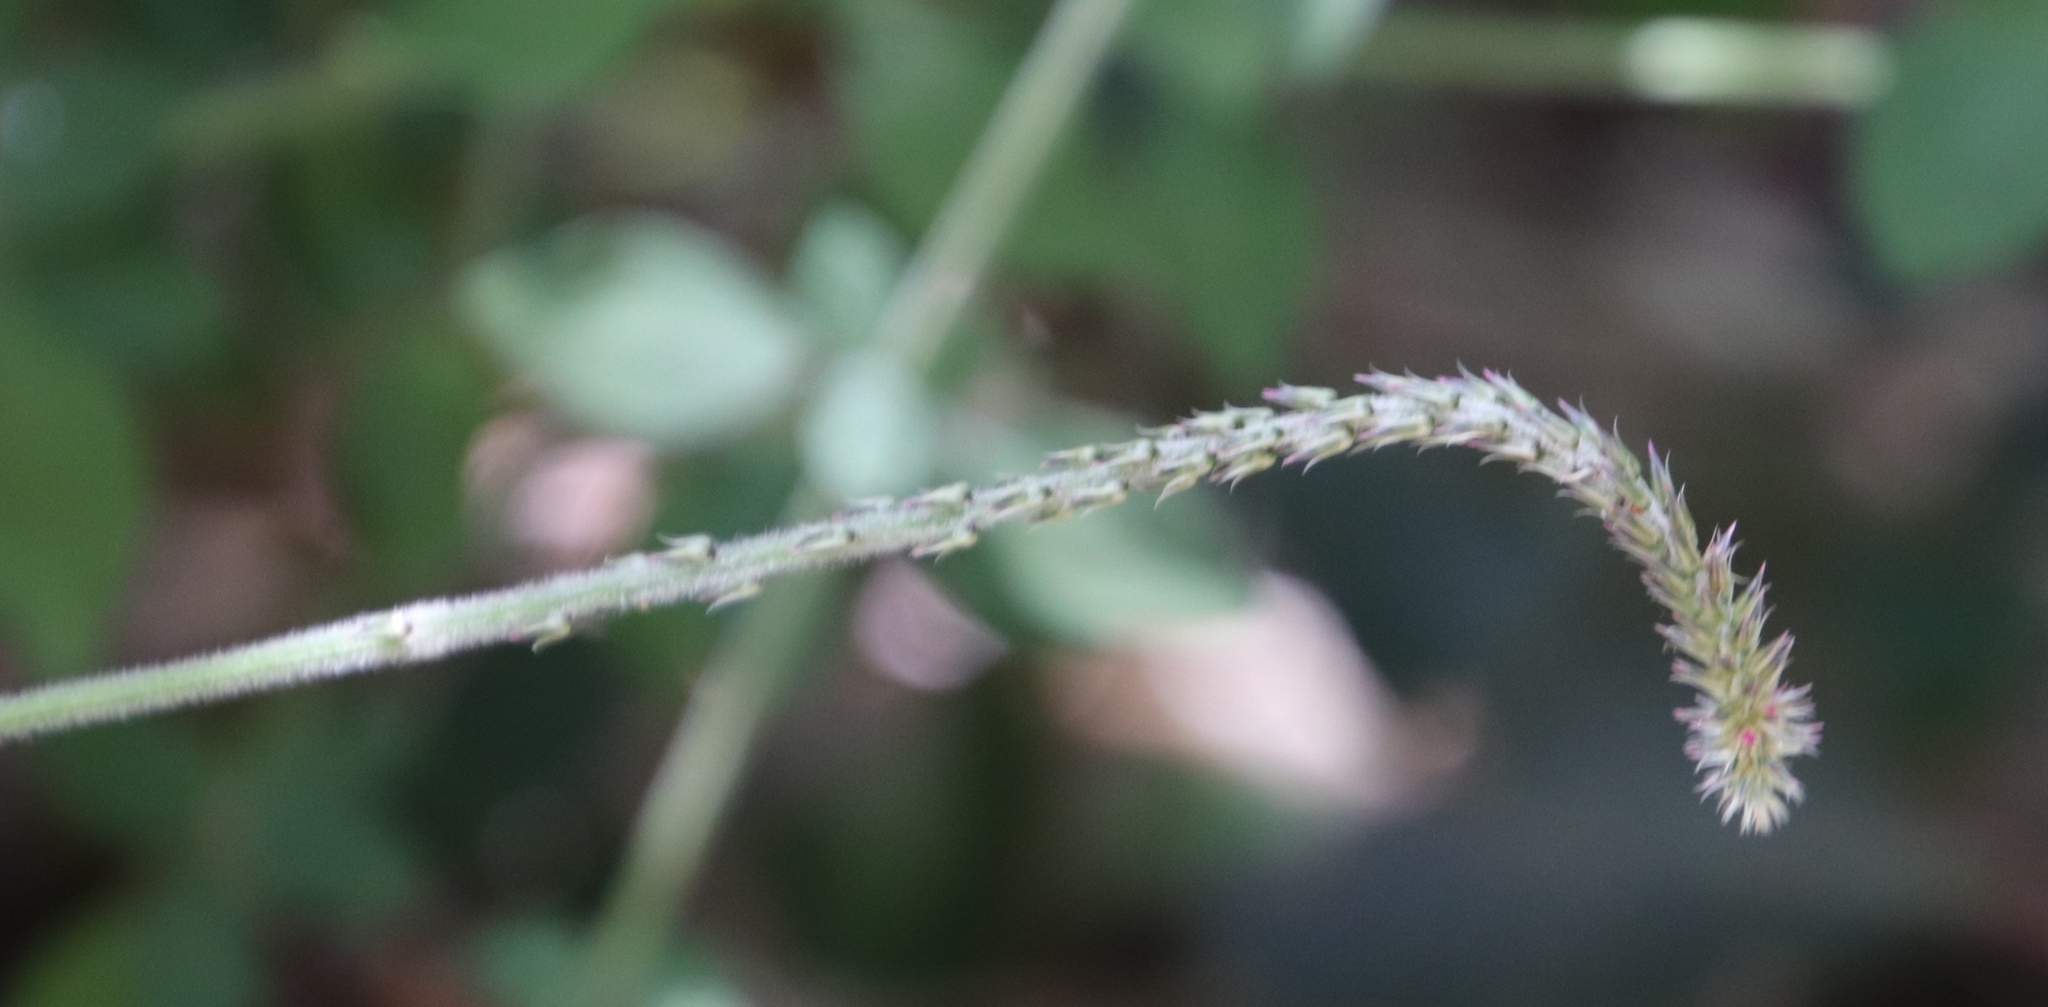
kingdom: Plantae
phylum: Tracheophyta
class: Magnoliopsida
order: Caryophyllales
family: Amaranthaceae
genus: Achyranthes
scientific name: Achyranthes aspera
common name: Devil's horsewhip
